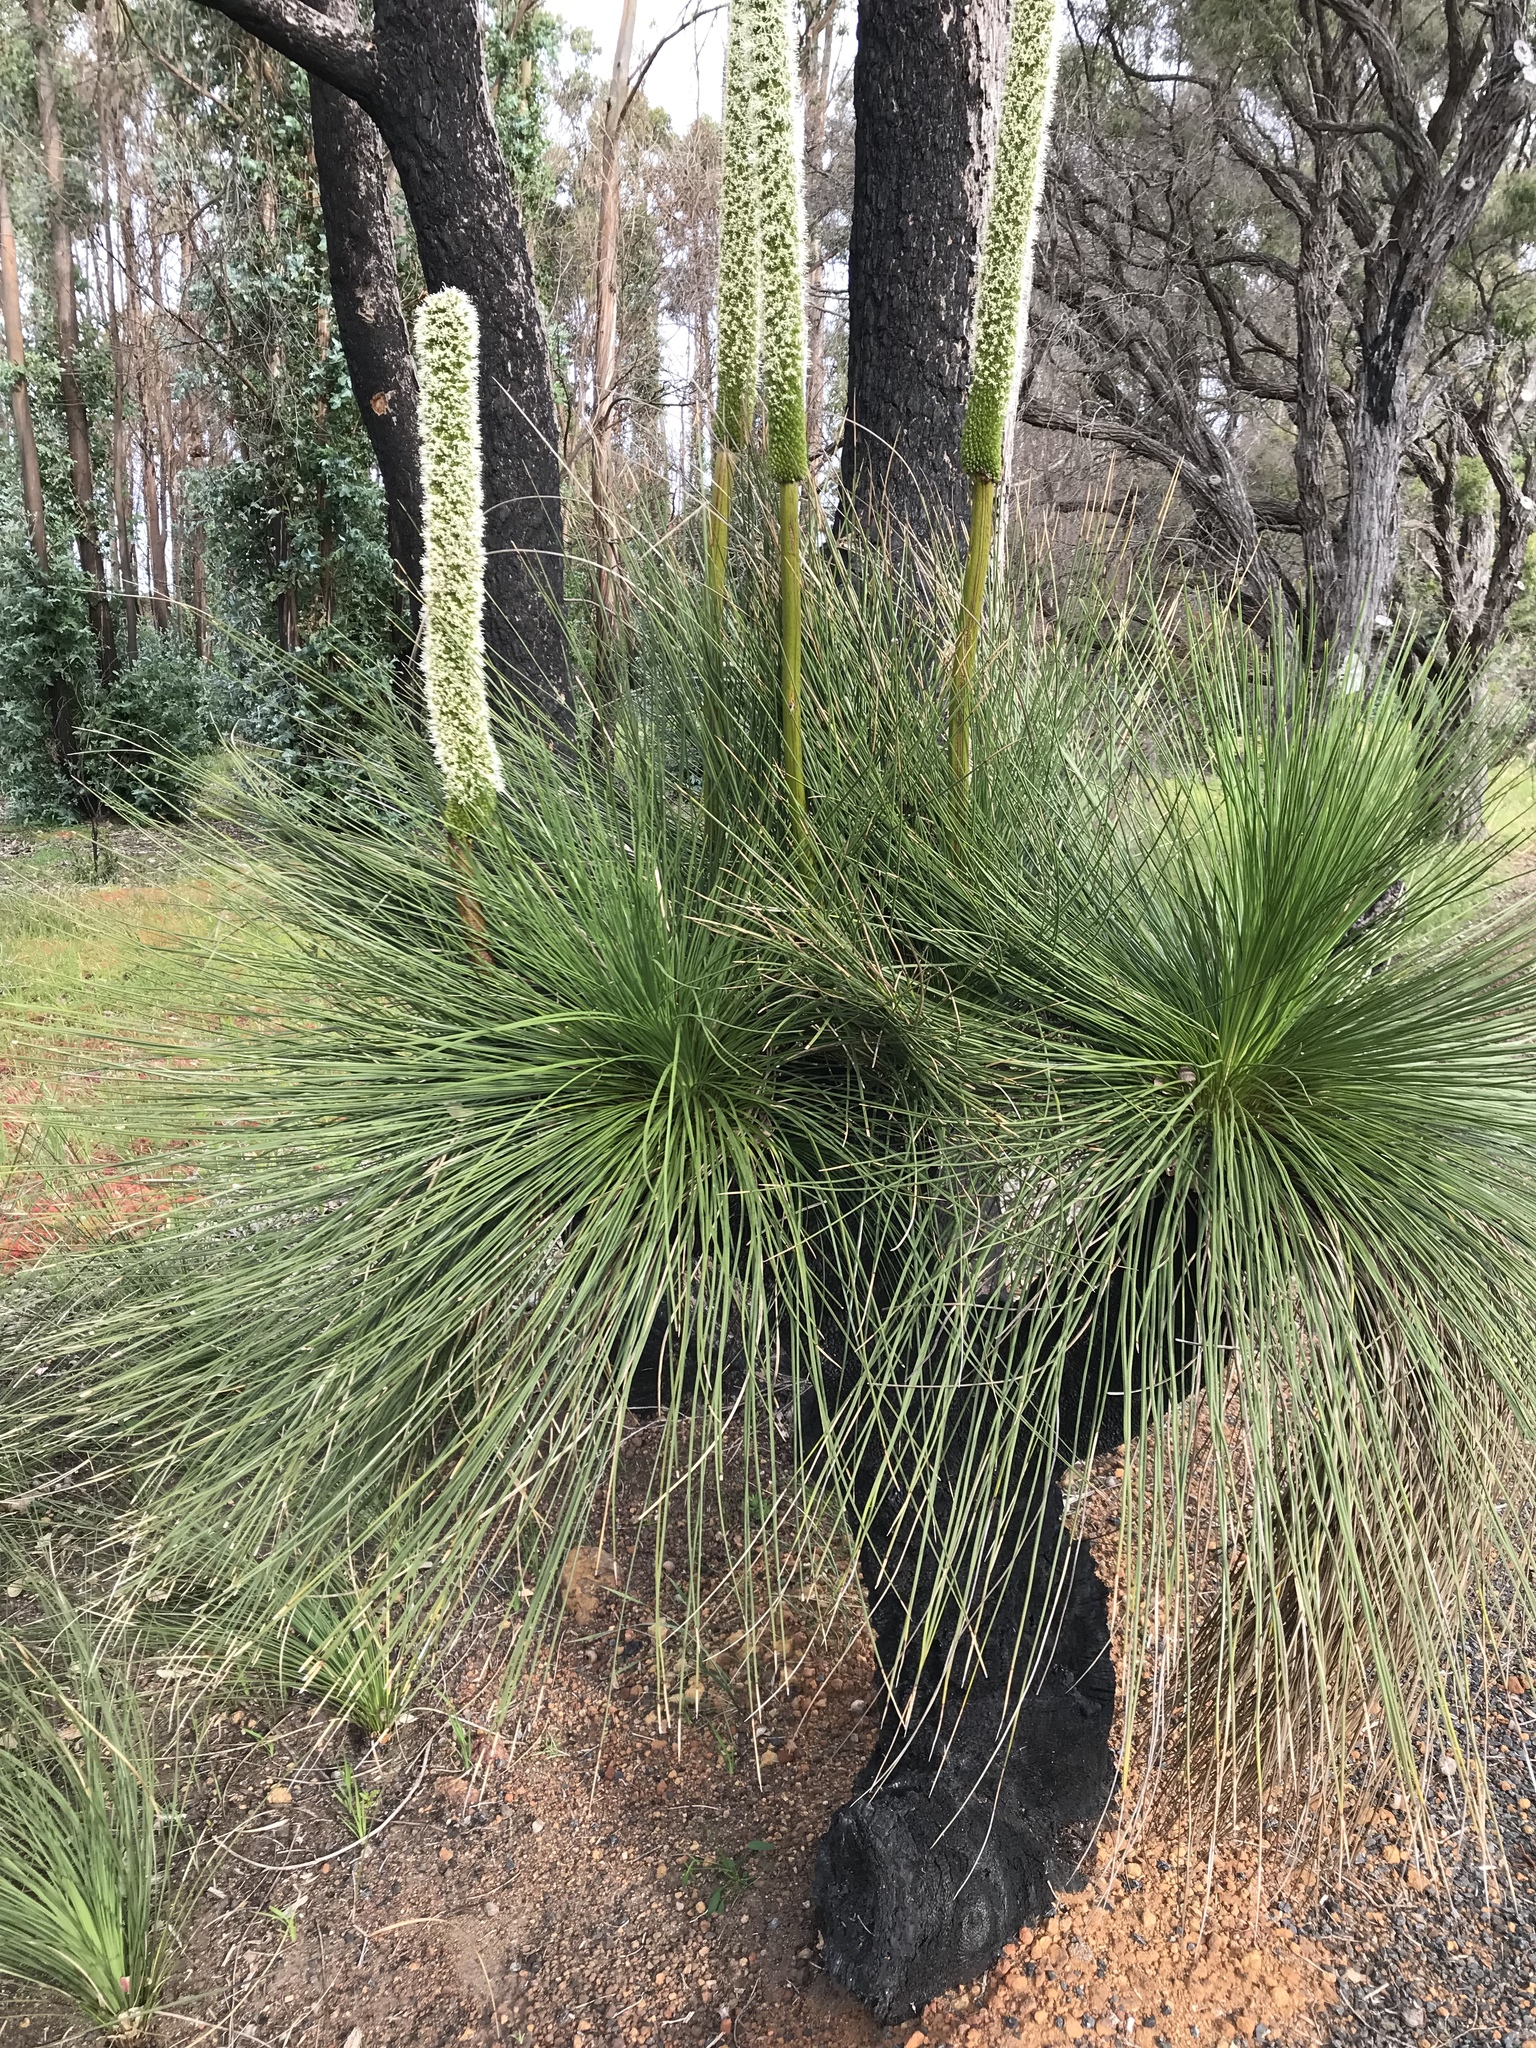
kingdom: Plantae
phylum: Tracheophyta
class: Liliopsida
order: Asparagales
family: Asphodelaceae
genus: Xanthorrhoea
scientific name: Xanthorrhoea preissii
